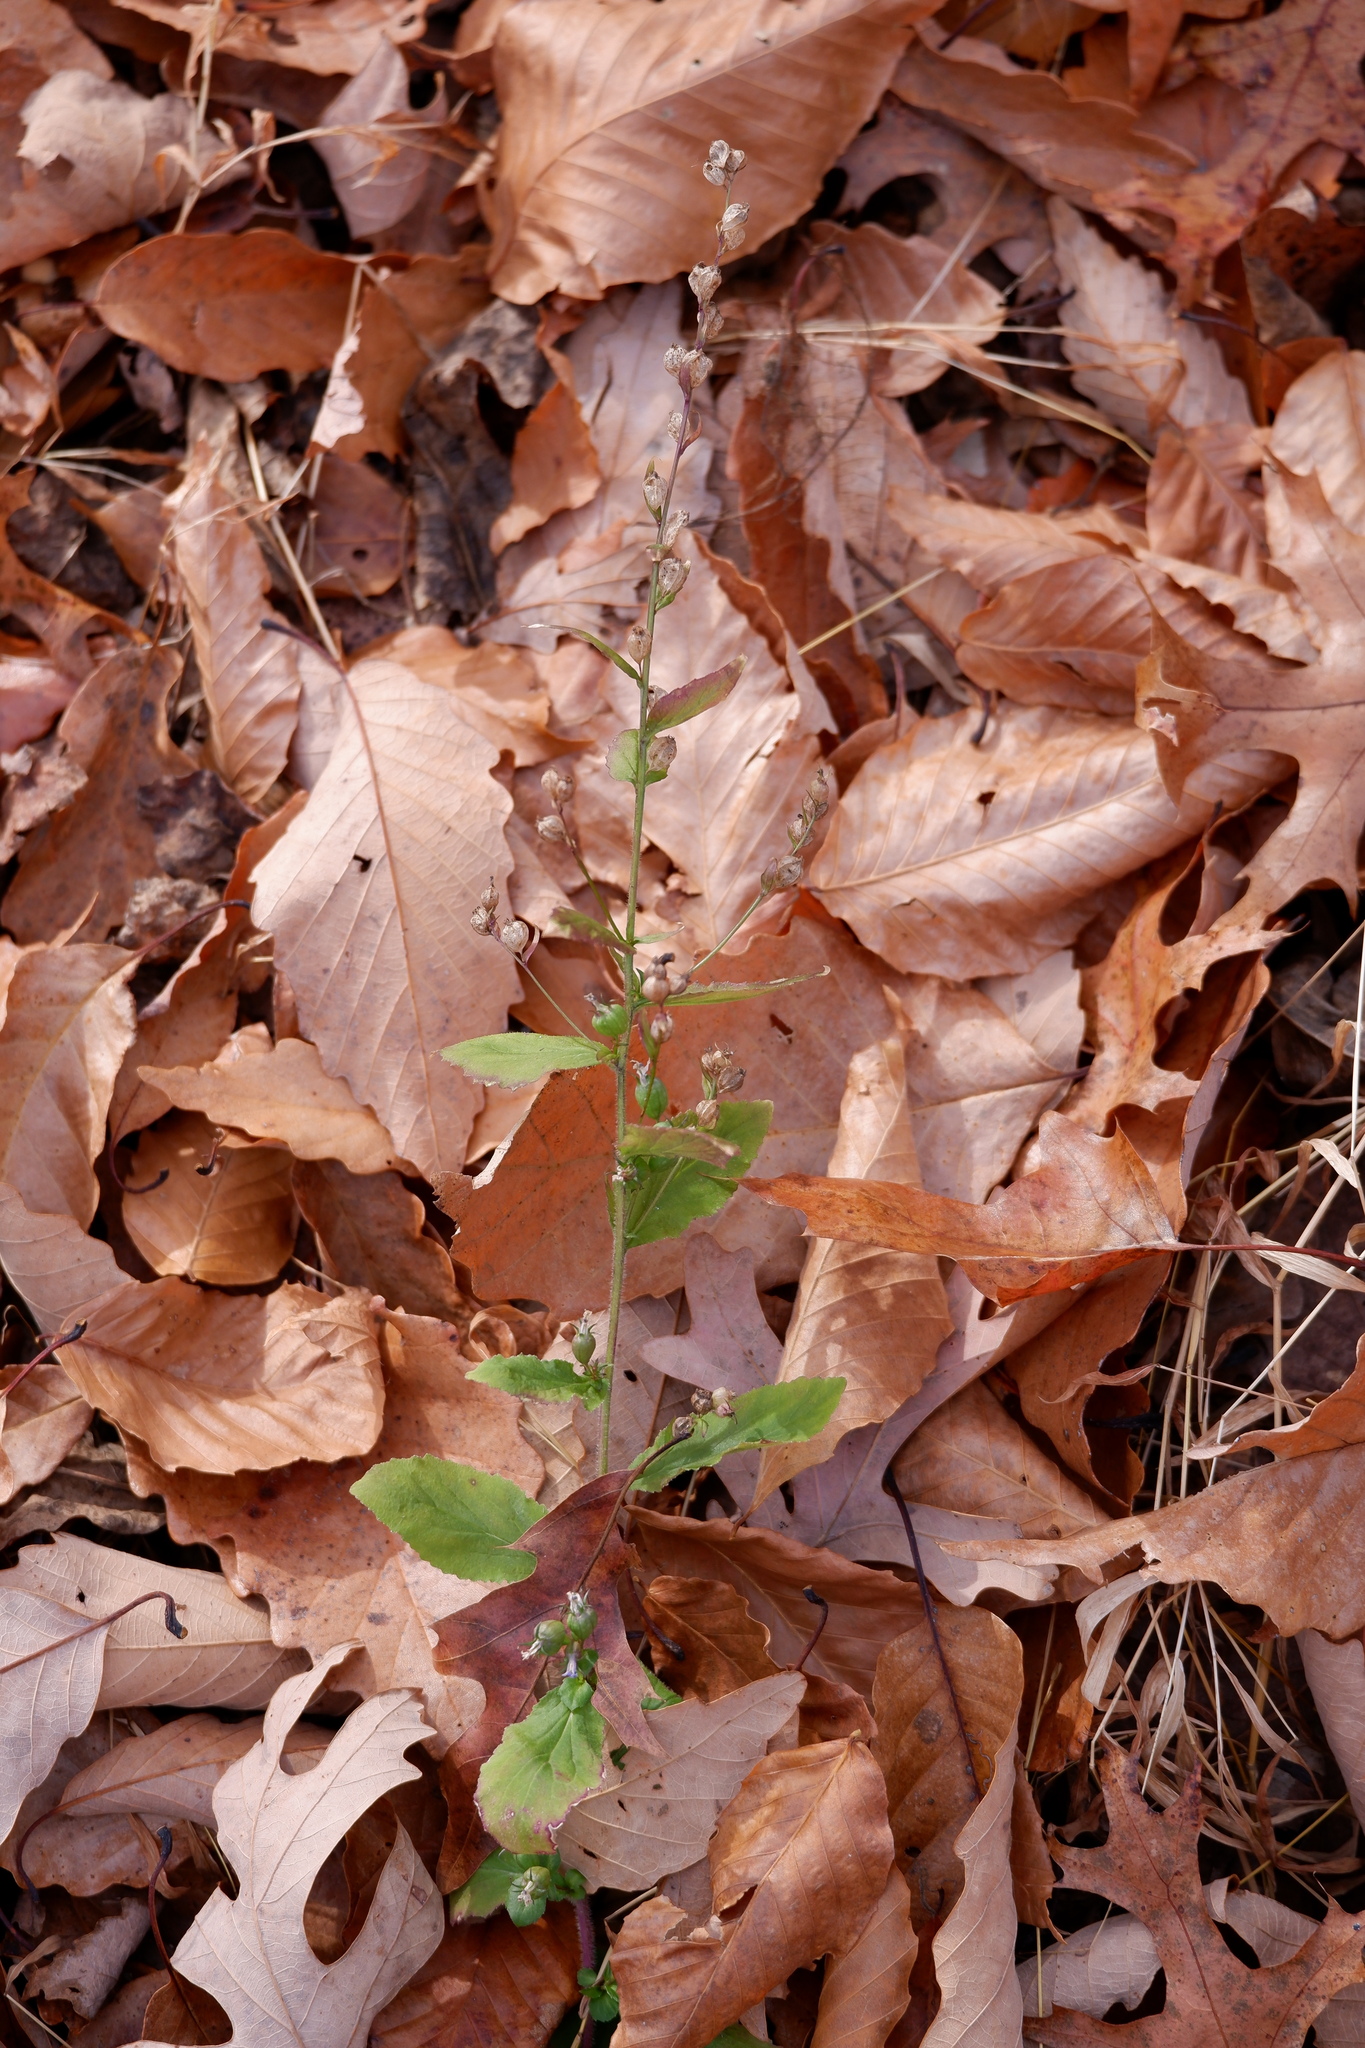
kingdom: Plantae
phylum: Tracheophyta
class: Magnoliopsida
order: Asterales
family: Campanulaceae
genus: Lobelia
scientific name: Lobelia inflata
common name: Indian tobacco
